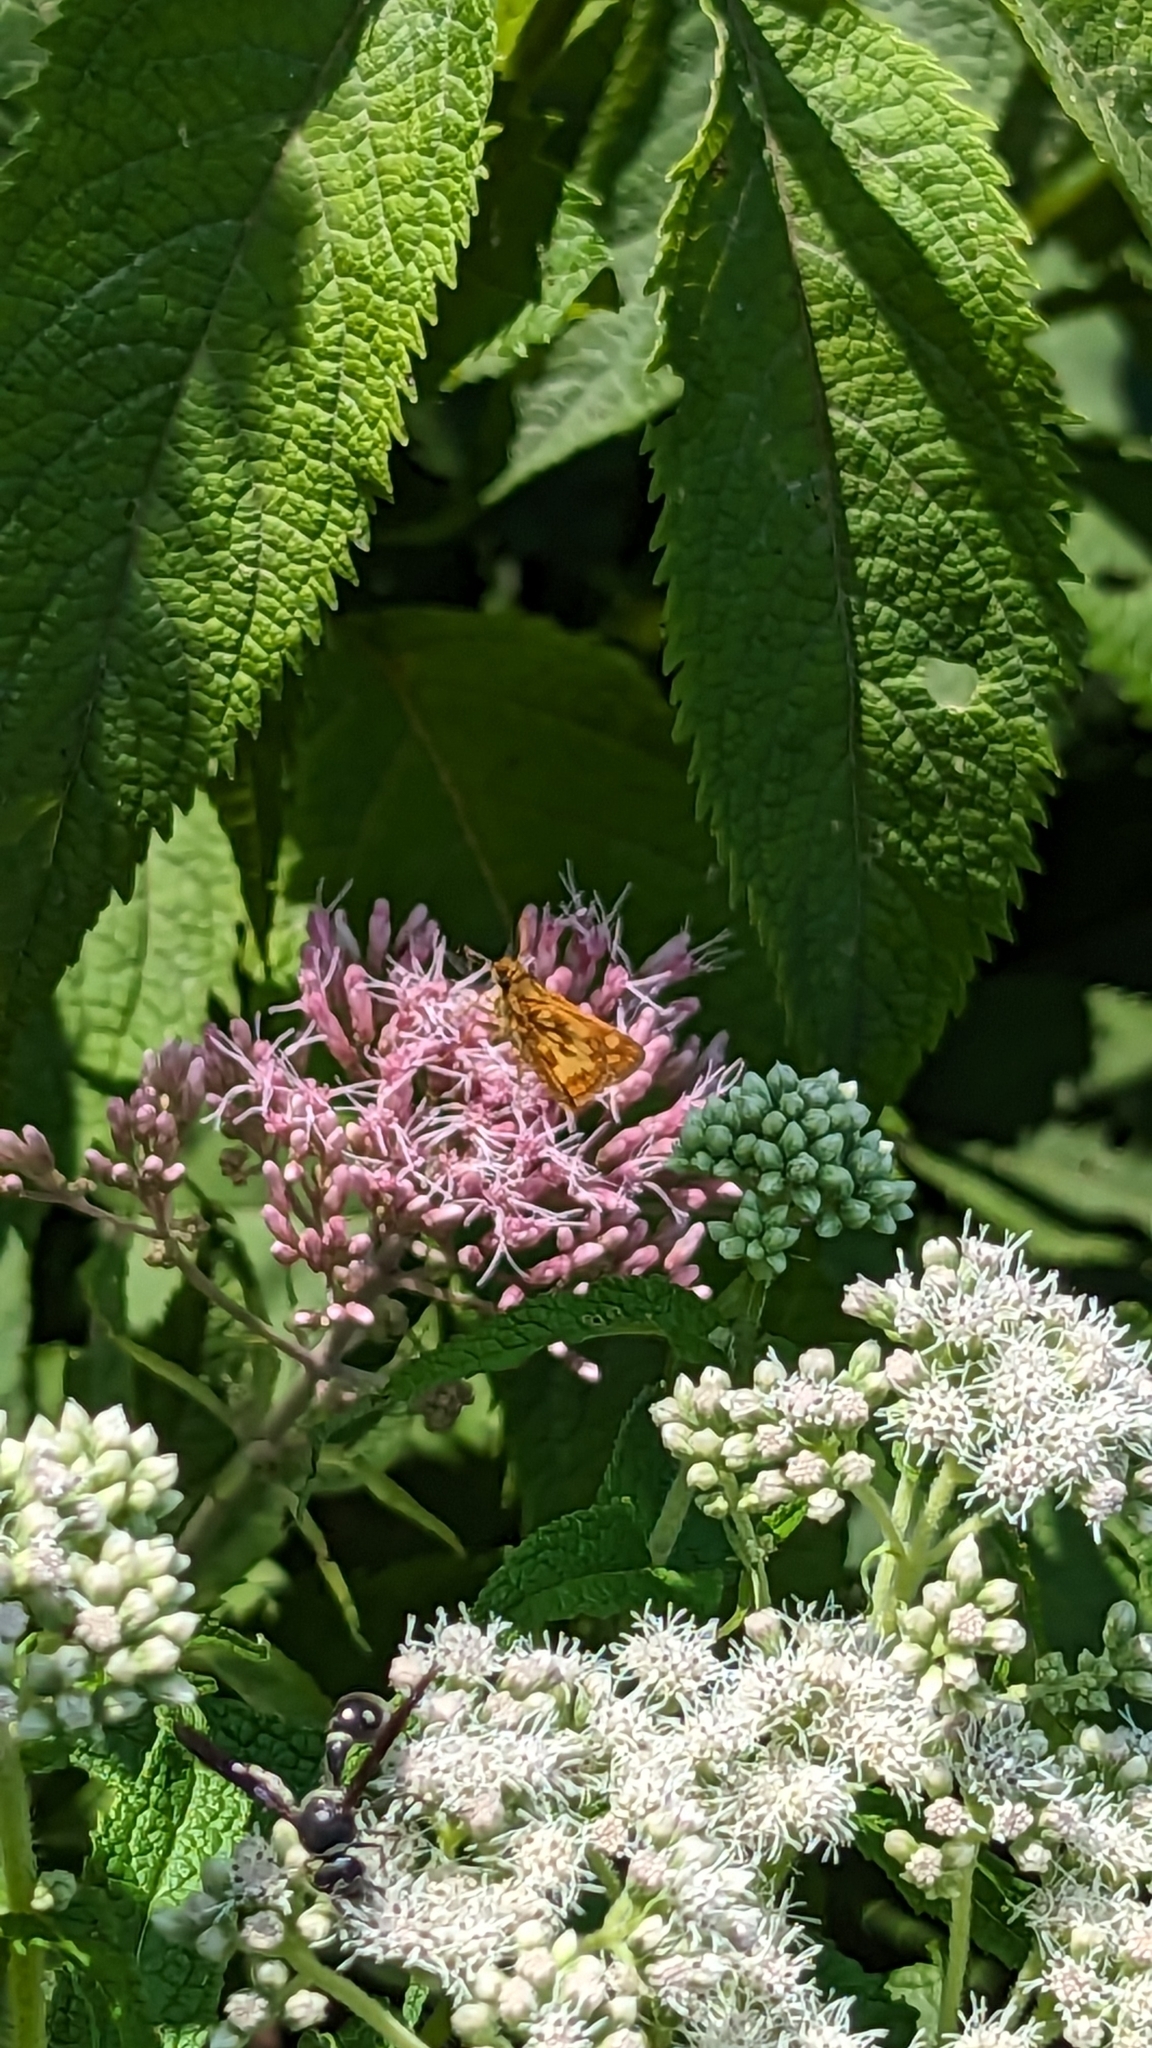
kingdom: Animalia
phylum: Arthropoda
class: Insecta
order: Lepidoptera
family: Hesperiidae
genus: Polites
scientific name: Polites coras
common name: Peck's skipper
